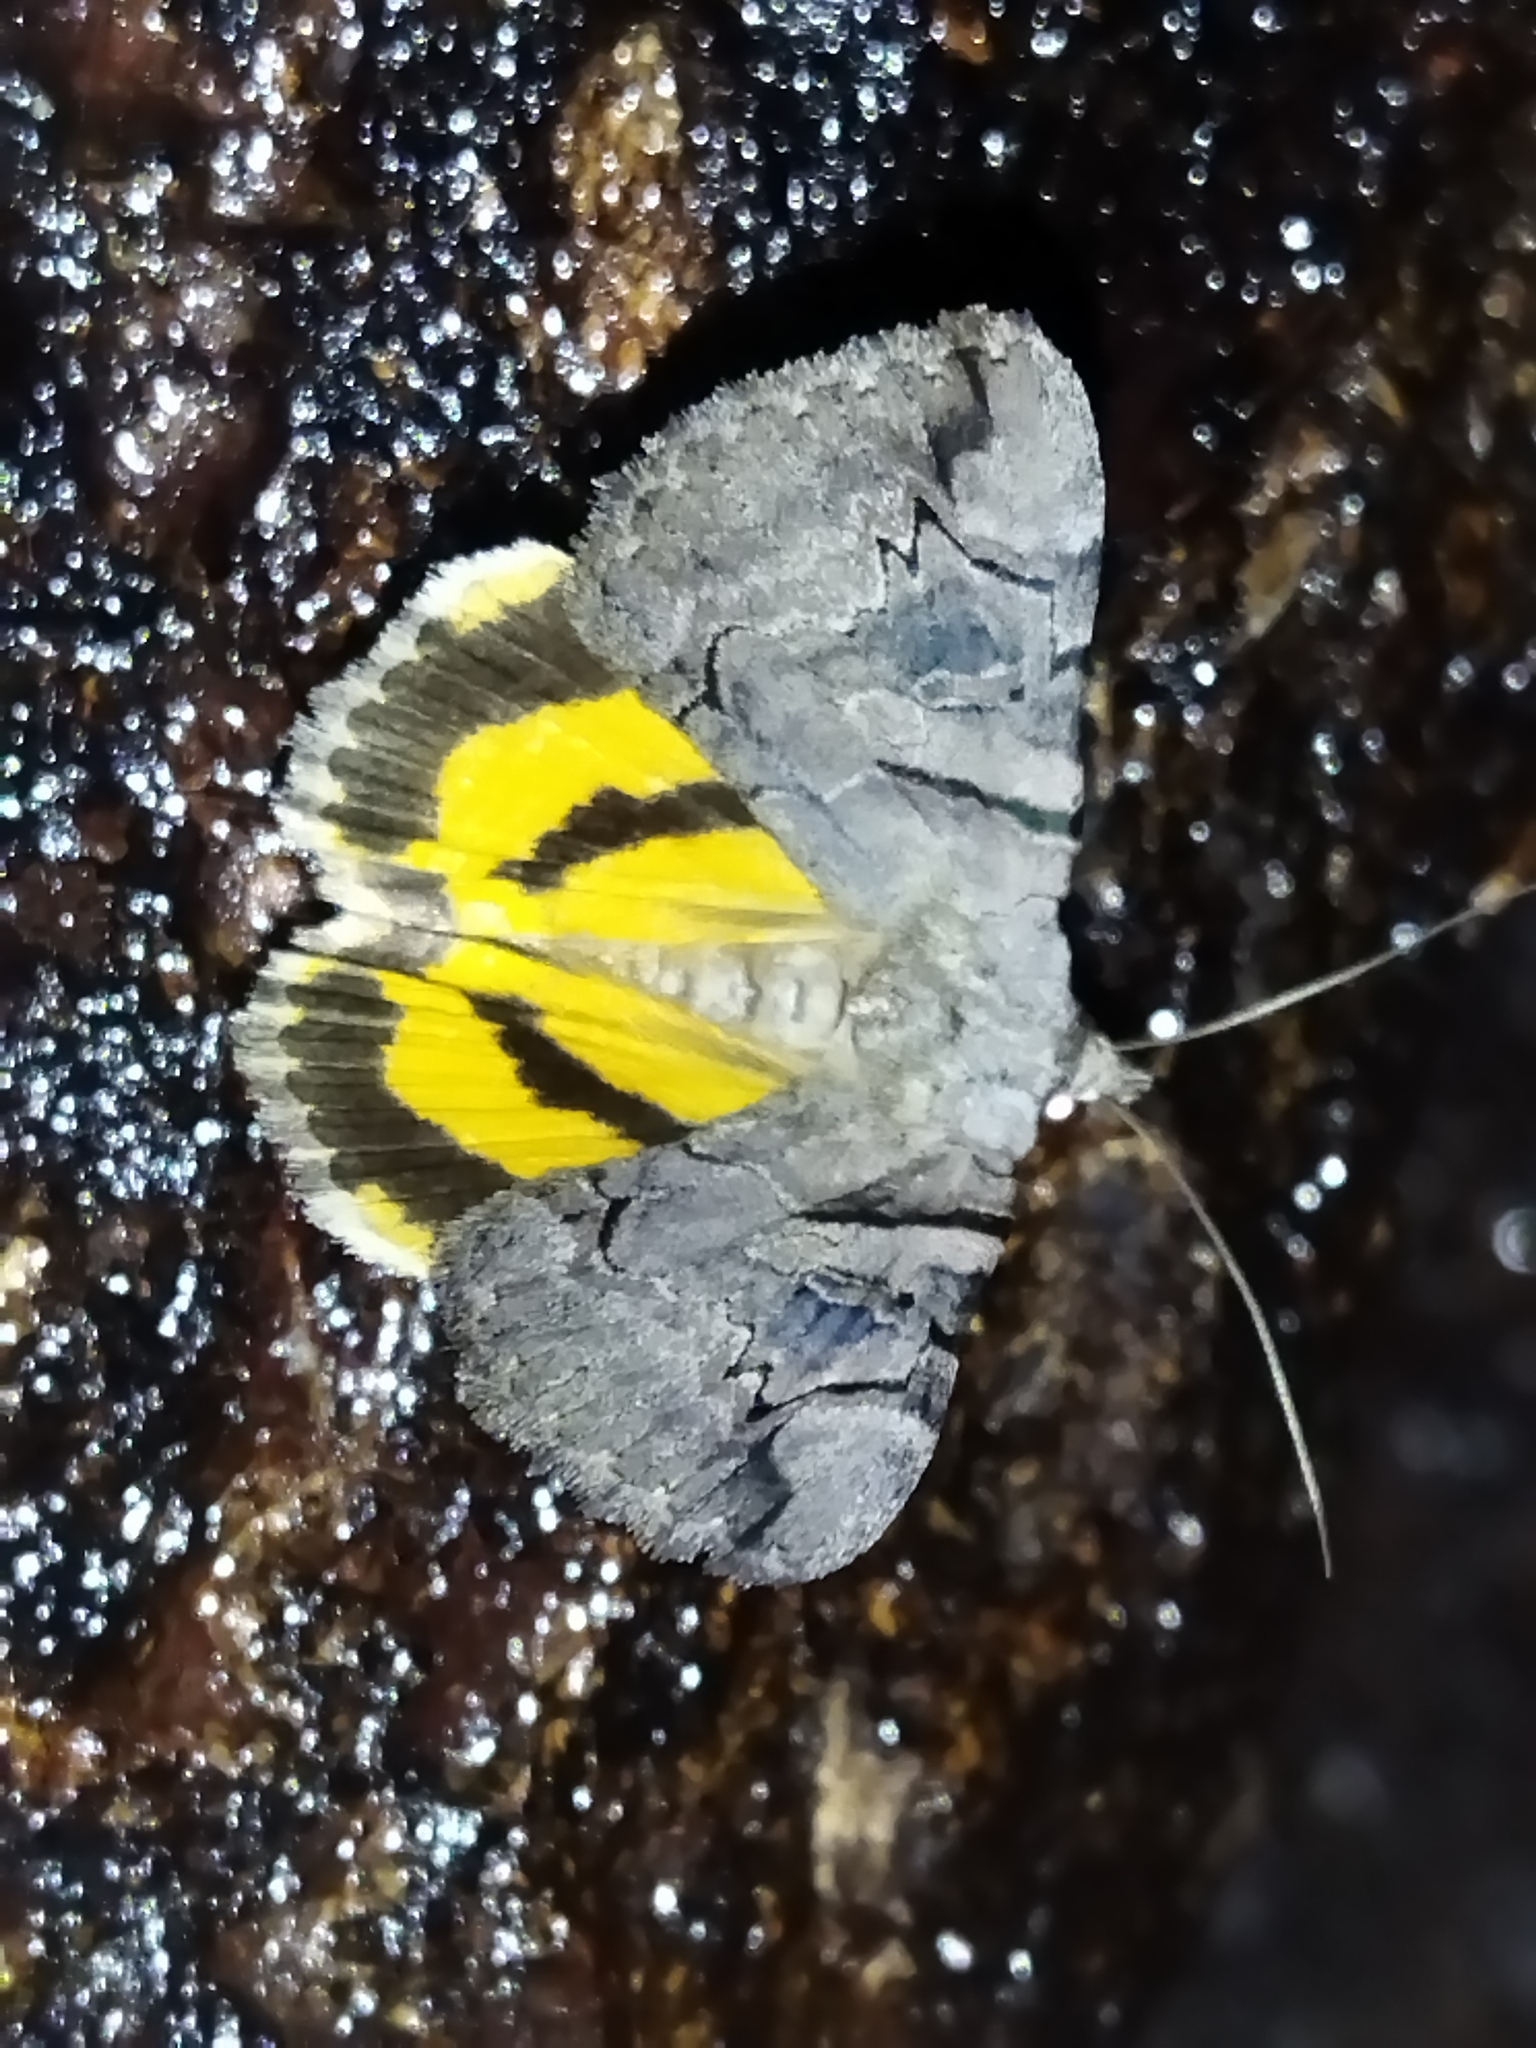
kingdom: Animalia
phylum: Arthropoda
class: Insecta
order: Lepidoptera
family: Erebidae
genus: Catocala
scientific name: Catocala hymenaea
